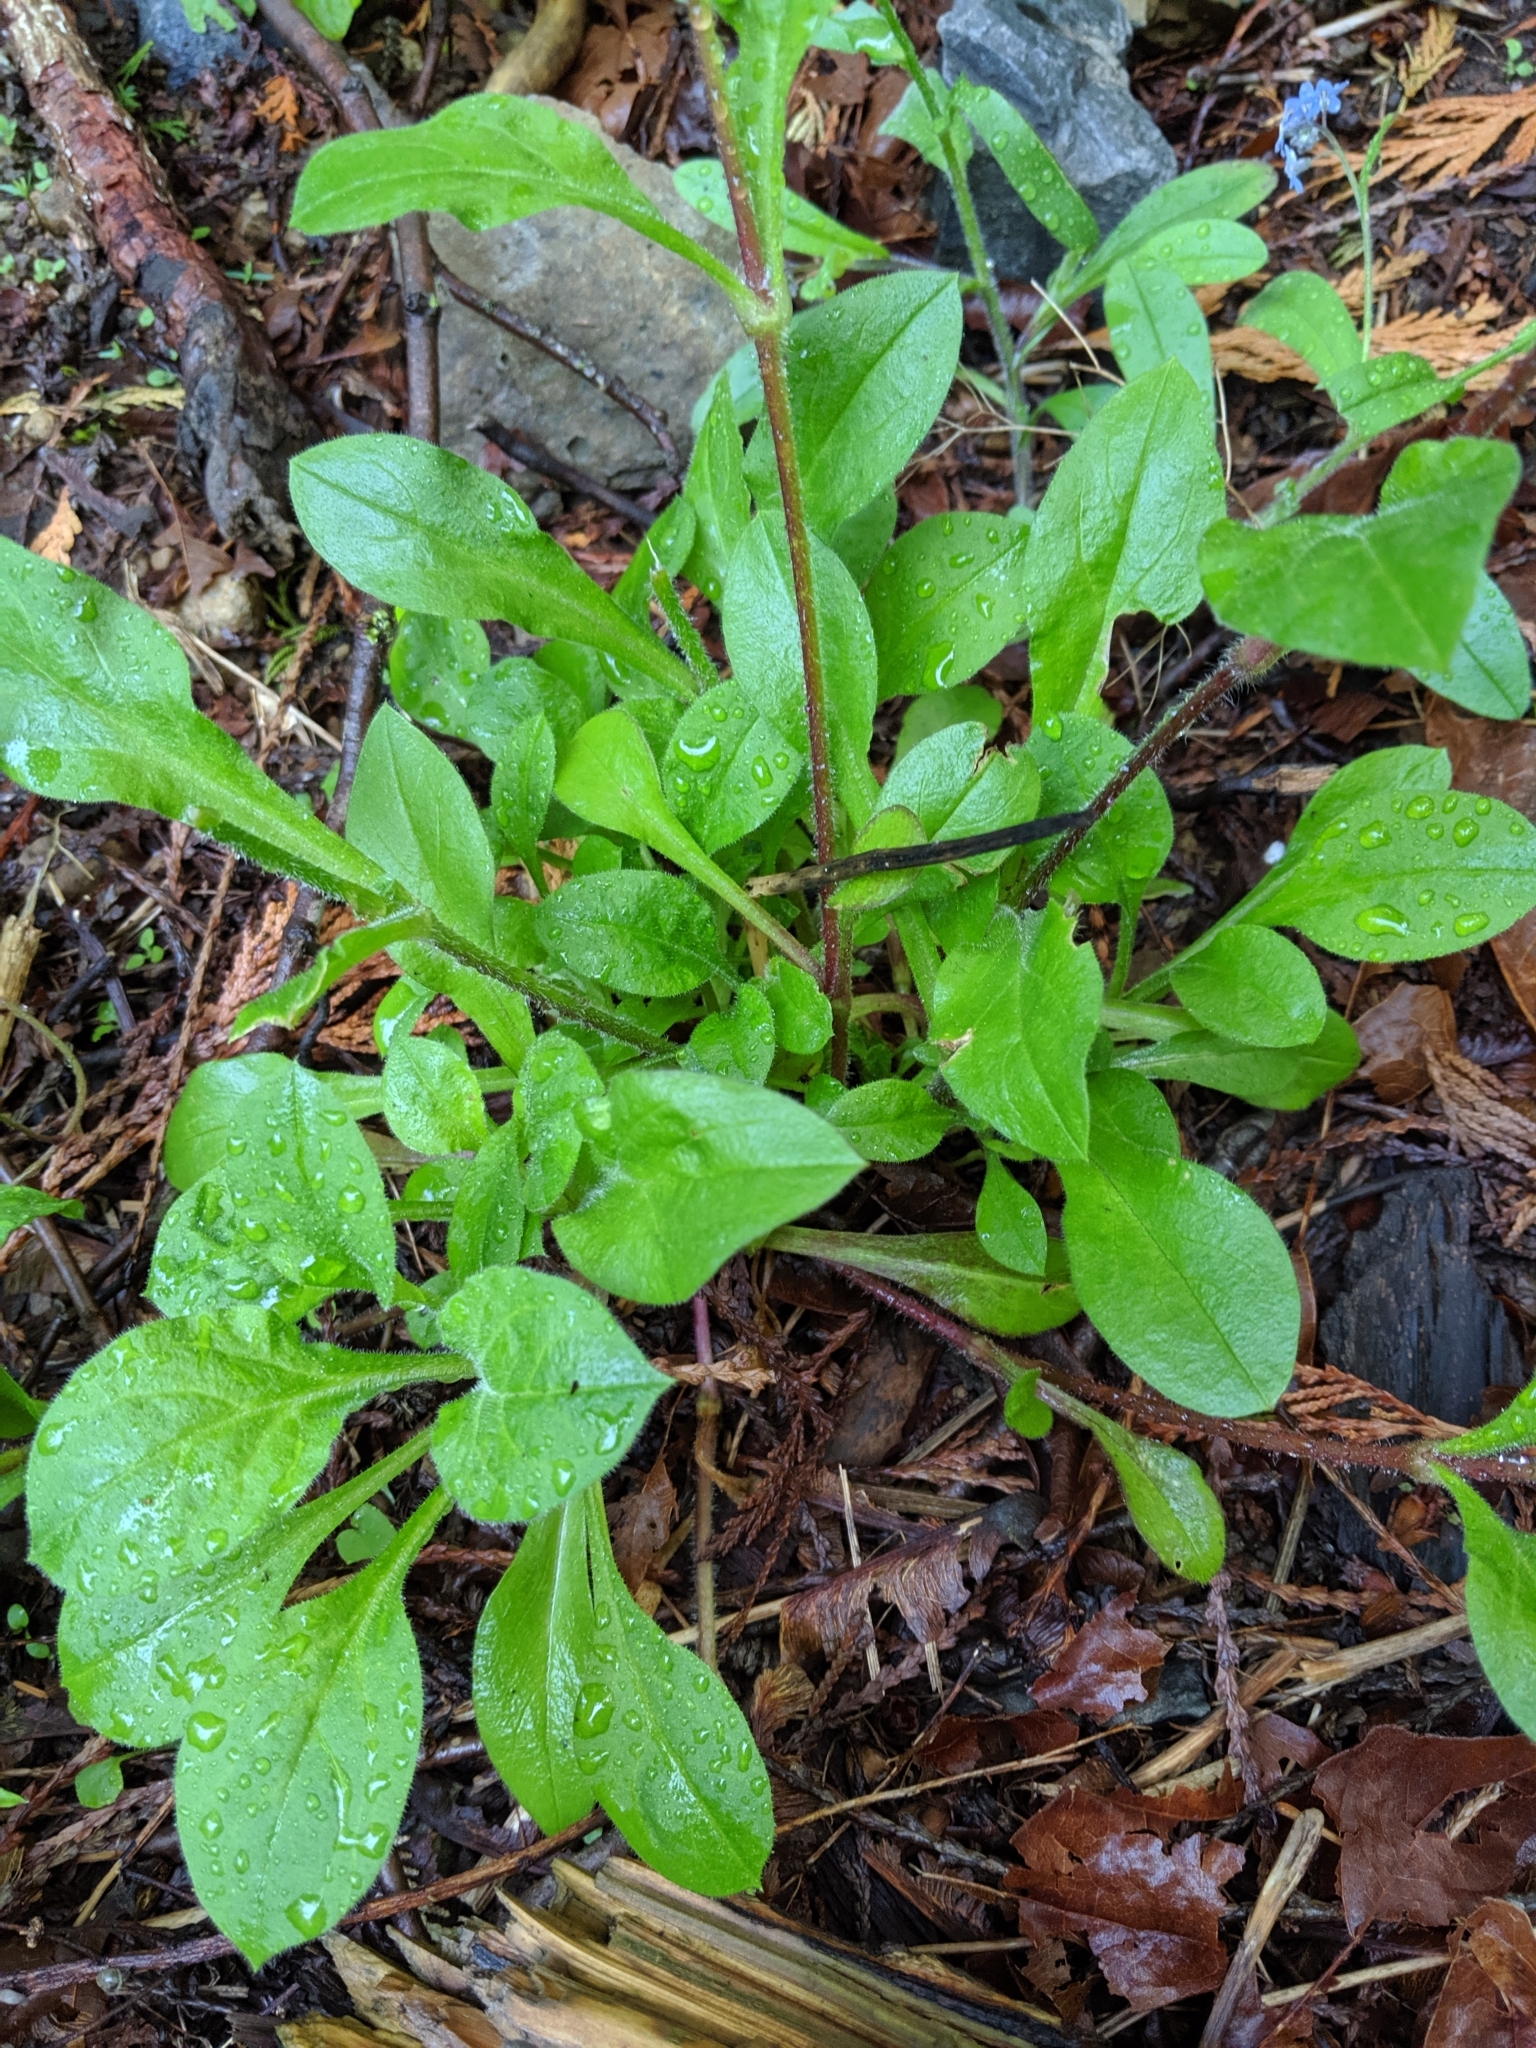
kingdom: Plantae
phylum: Tracheophyta
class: Magnoliopsida
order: Caryophyllales
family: Caryophyllaceae
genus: Silene
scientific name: Silene dioica
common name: Red campion
